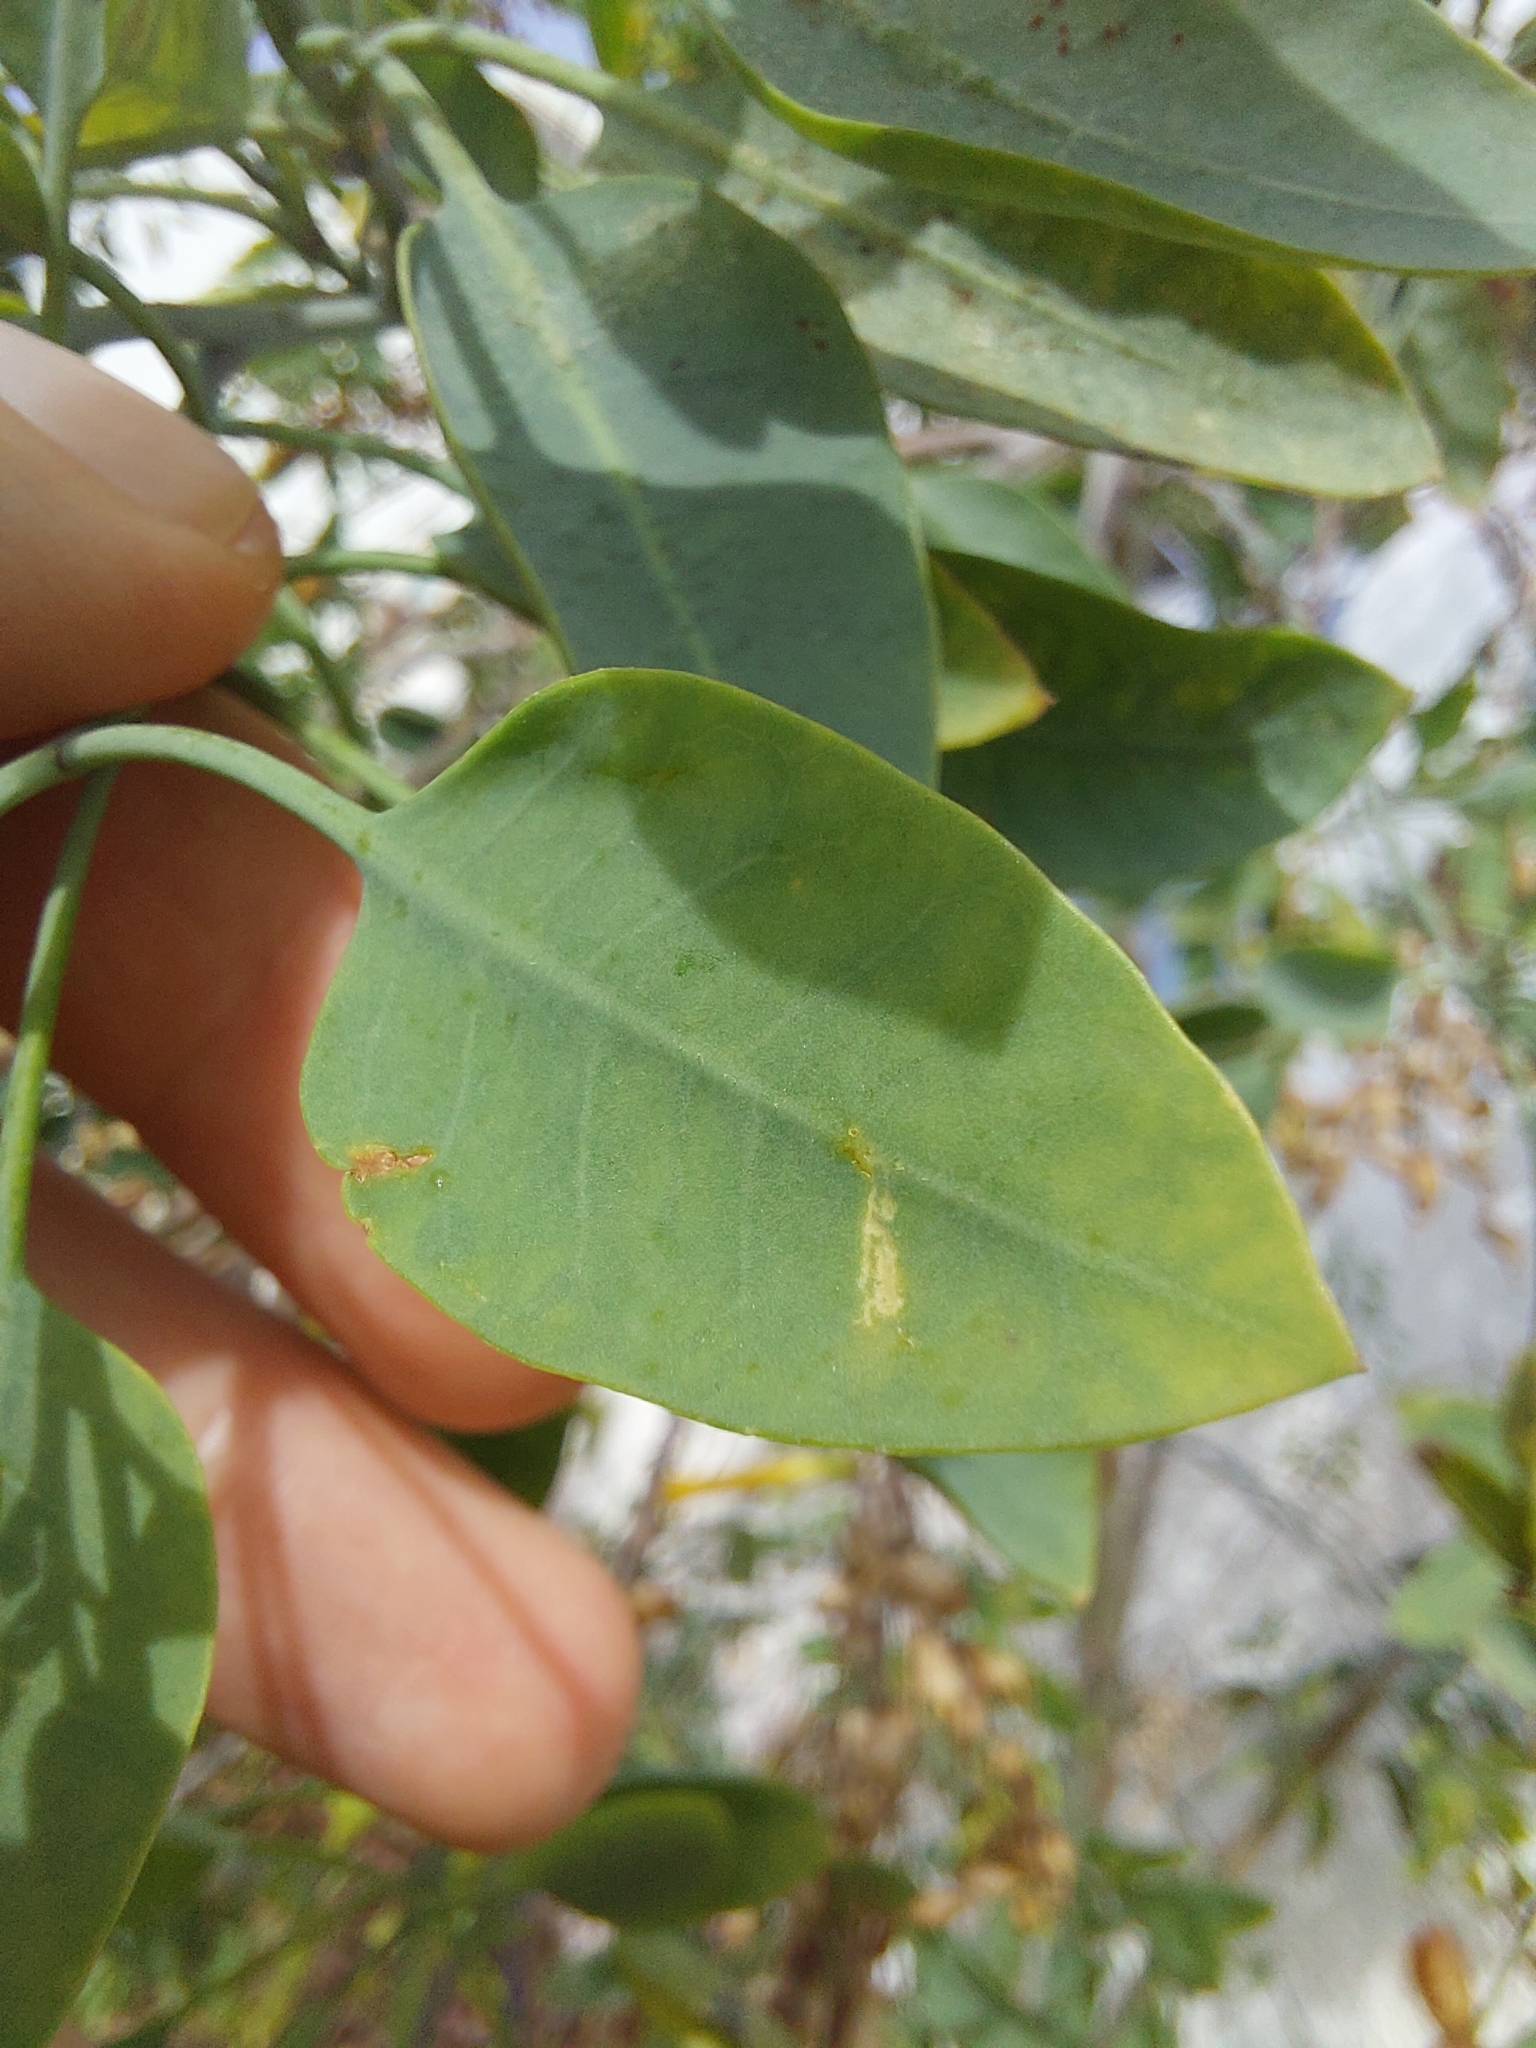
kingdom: Plantae
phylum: Tracheophyta
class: Magnoliopsida
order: Solanales
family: Solanaceae
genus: Nicotiana
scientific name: Nicotiana glauca
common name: Tree tobacco
